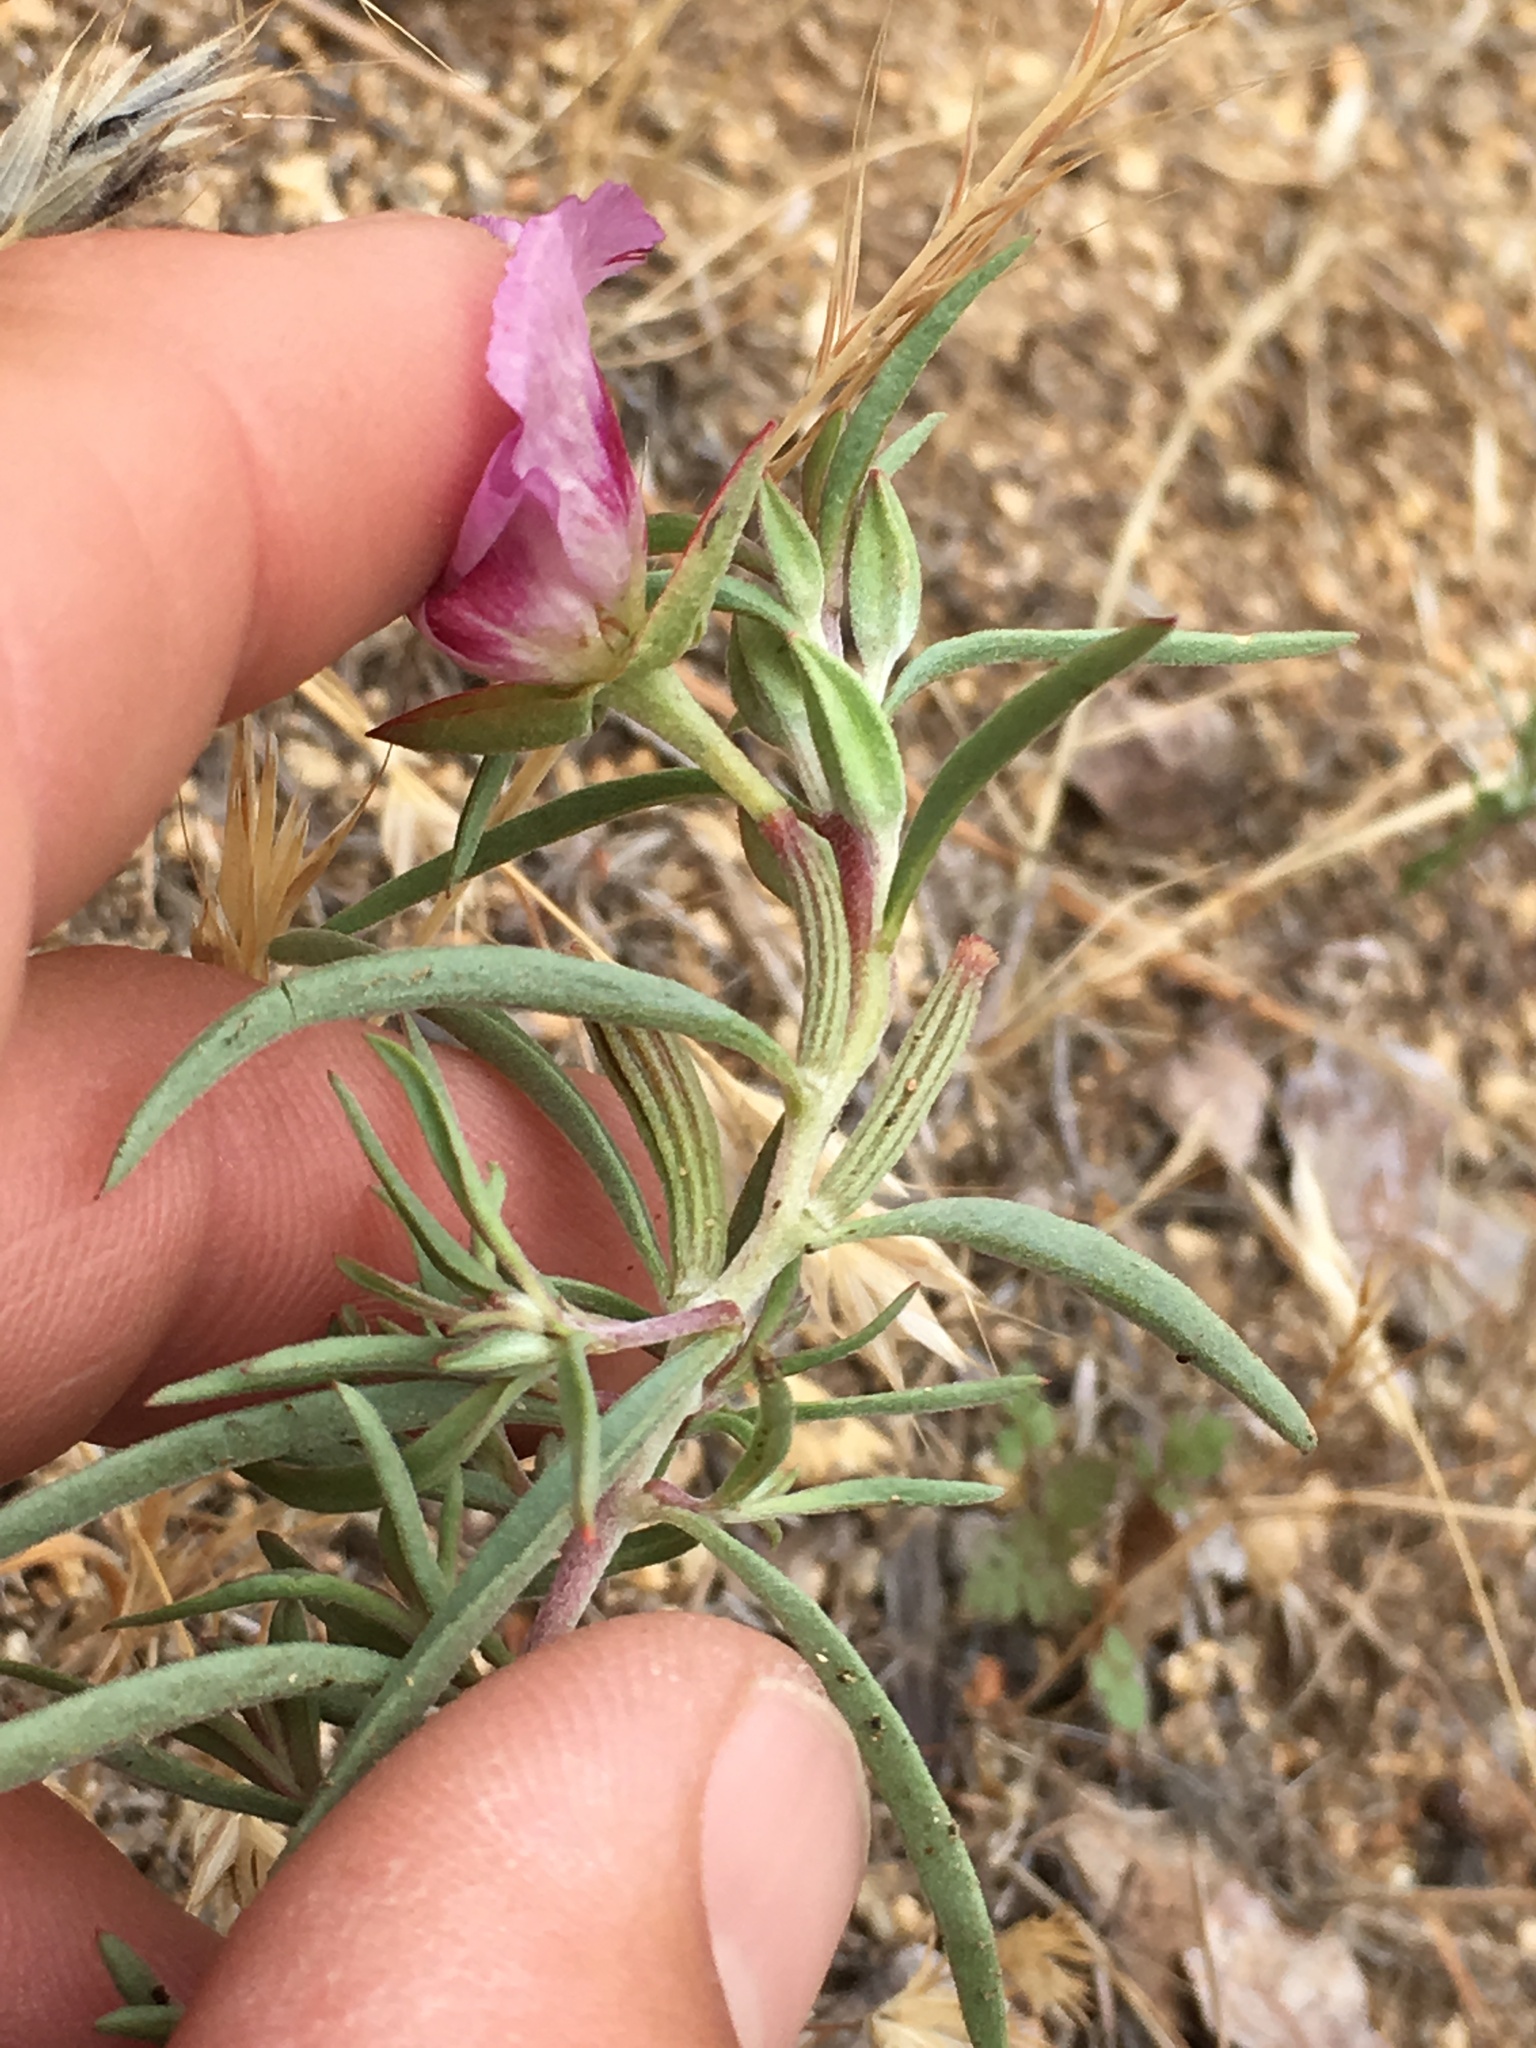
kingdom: Plantae
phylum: Tracheophyta
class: Magnoliopsida
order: Myrtales
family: Onagraceae
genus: Clarkia
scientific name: Clarkia speciosa
